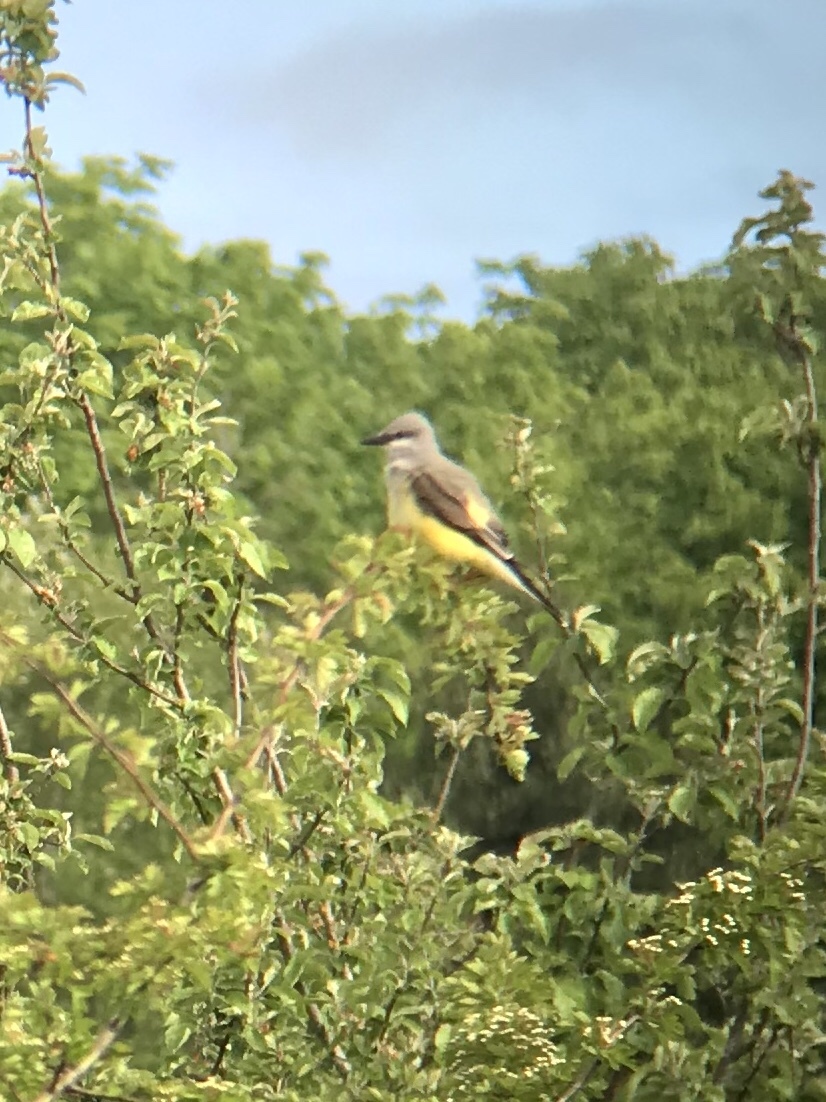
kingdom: Animalia
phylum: Chordata
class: Aves
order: Passeriformes
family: Tyrannidae
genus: Tyrannus
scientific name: Tyrannus verticalis
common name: Western kingbird
